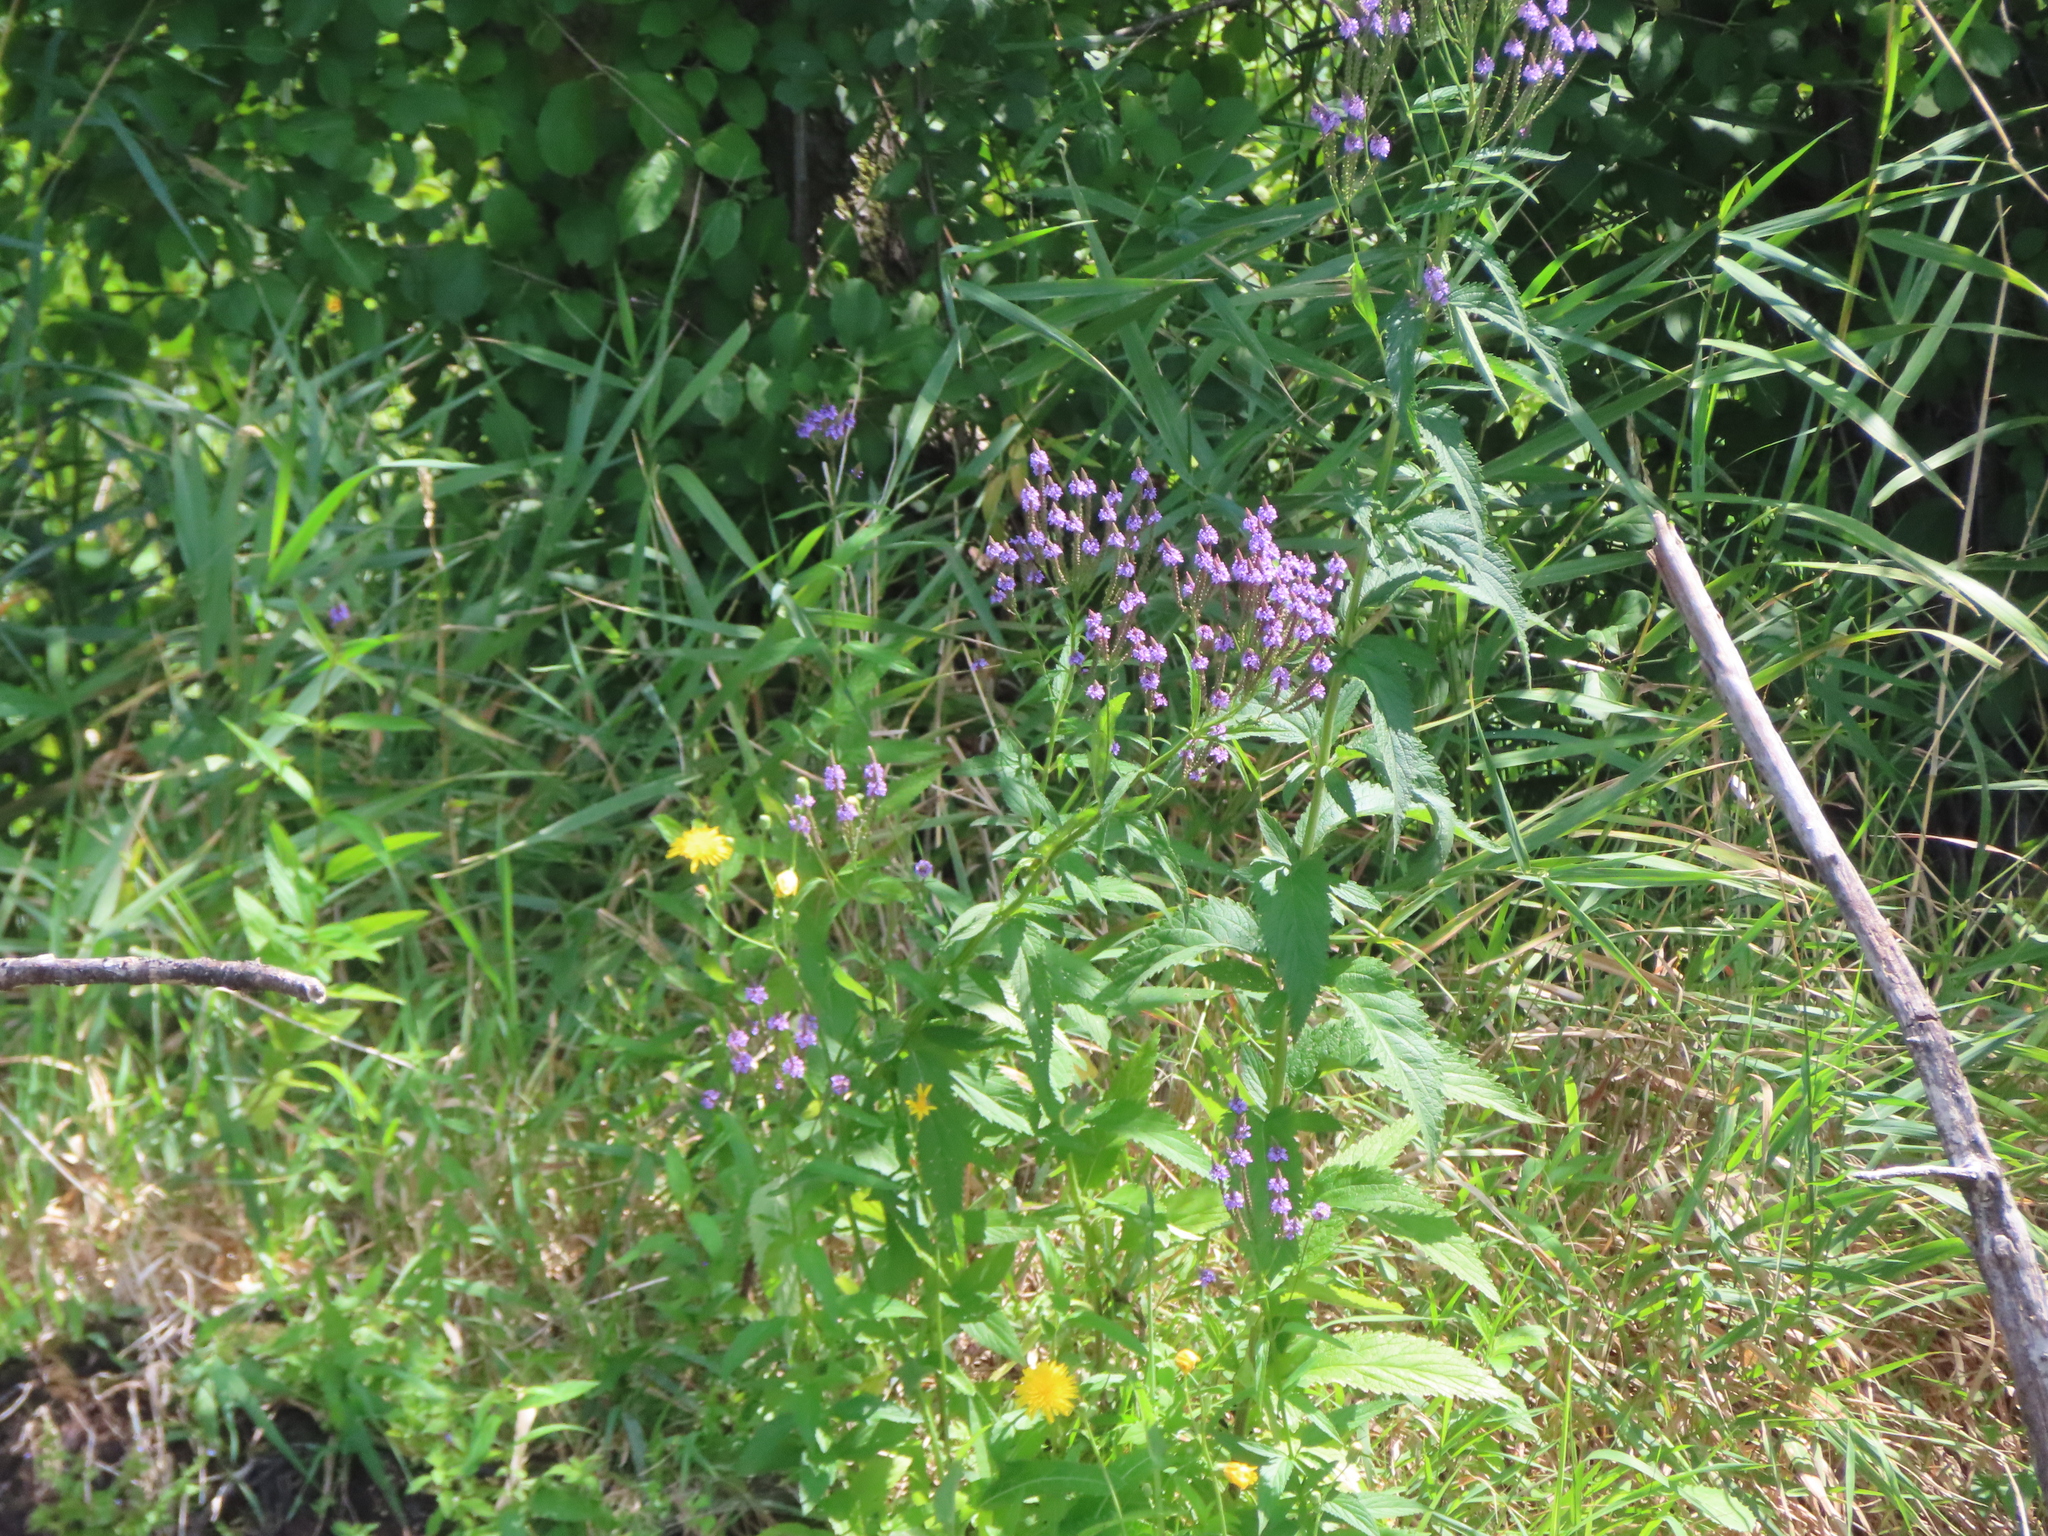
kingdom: Plantae
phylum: Tracheophyta
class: Magnoliopsida
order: Lamiales
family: Verbenaceae
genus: Verbena
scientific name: Verbena hastata
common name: American blue vervain
